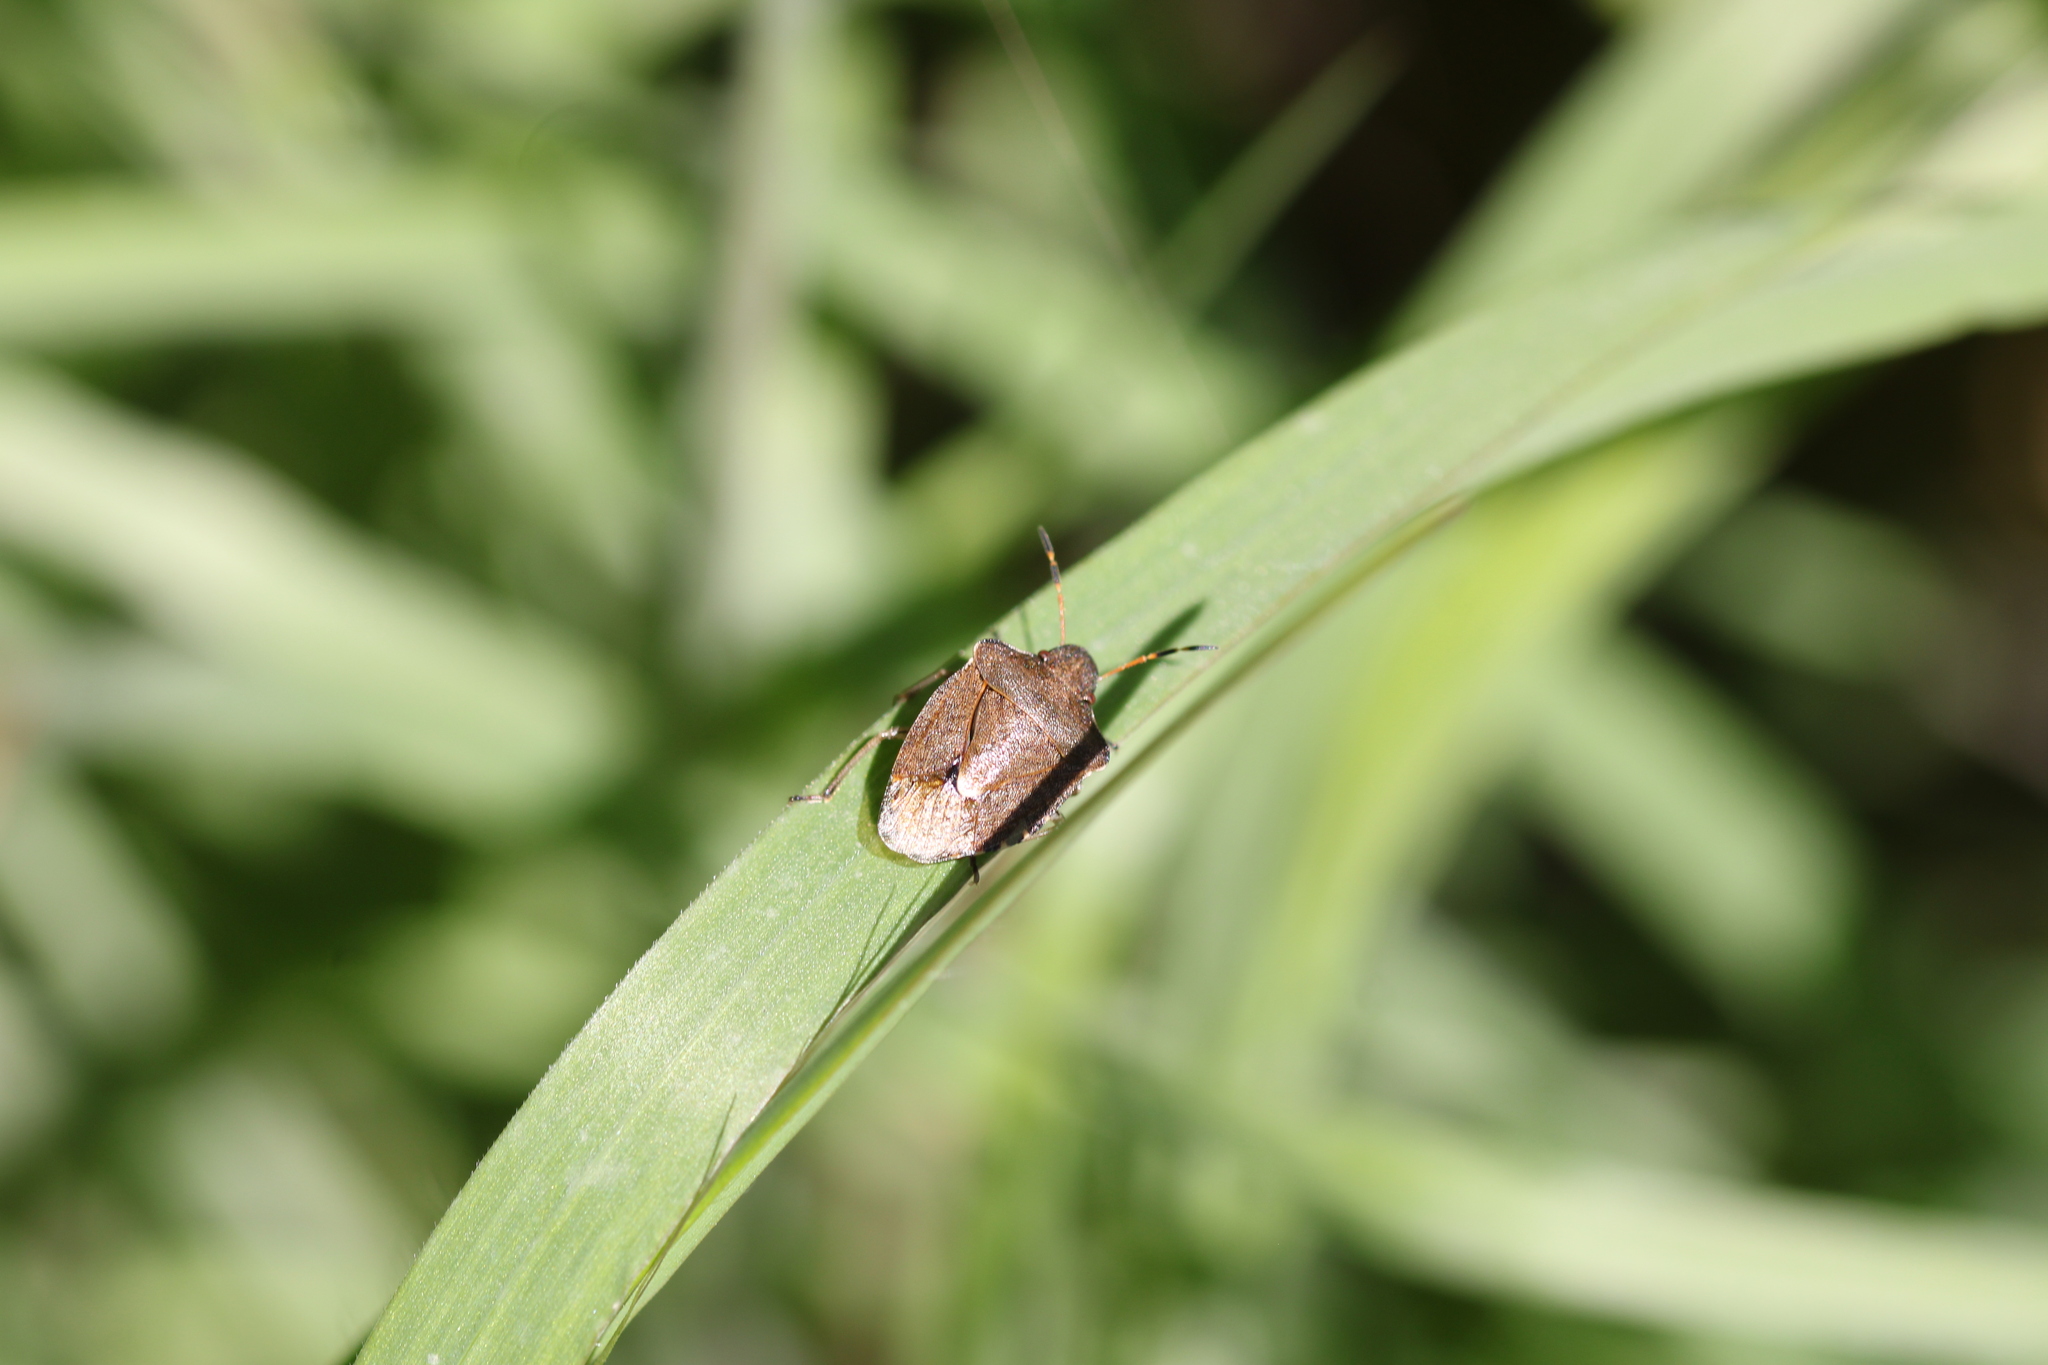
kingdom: Animalia
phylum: Arthropoda
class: Insecta
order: Hemiptera
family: Pentatomidae
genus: Holcostethus
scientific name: Holcostethus strictus
